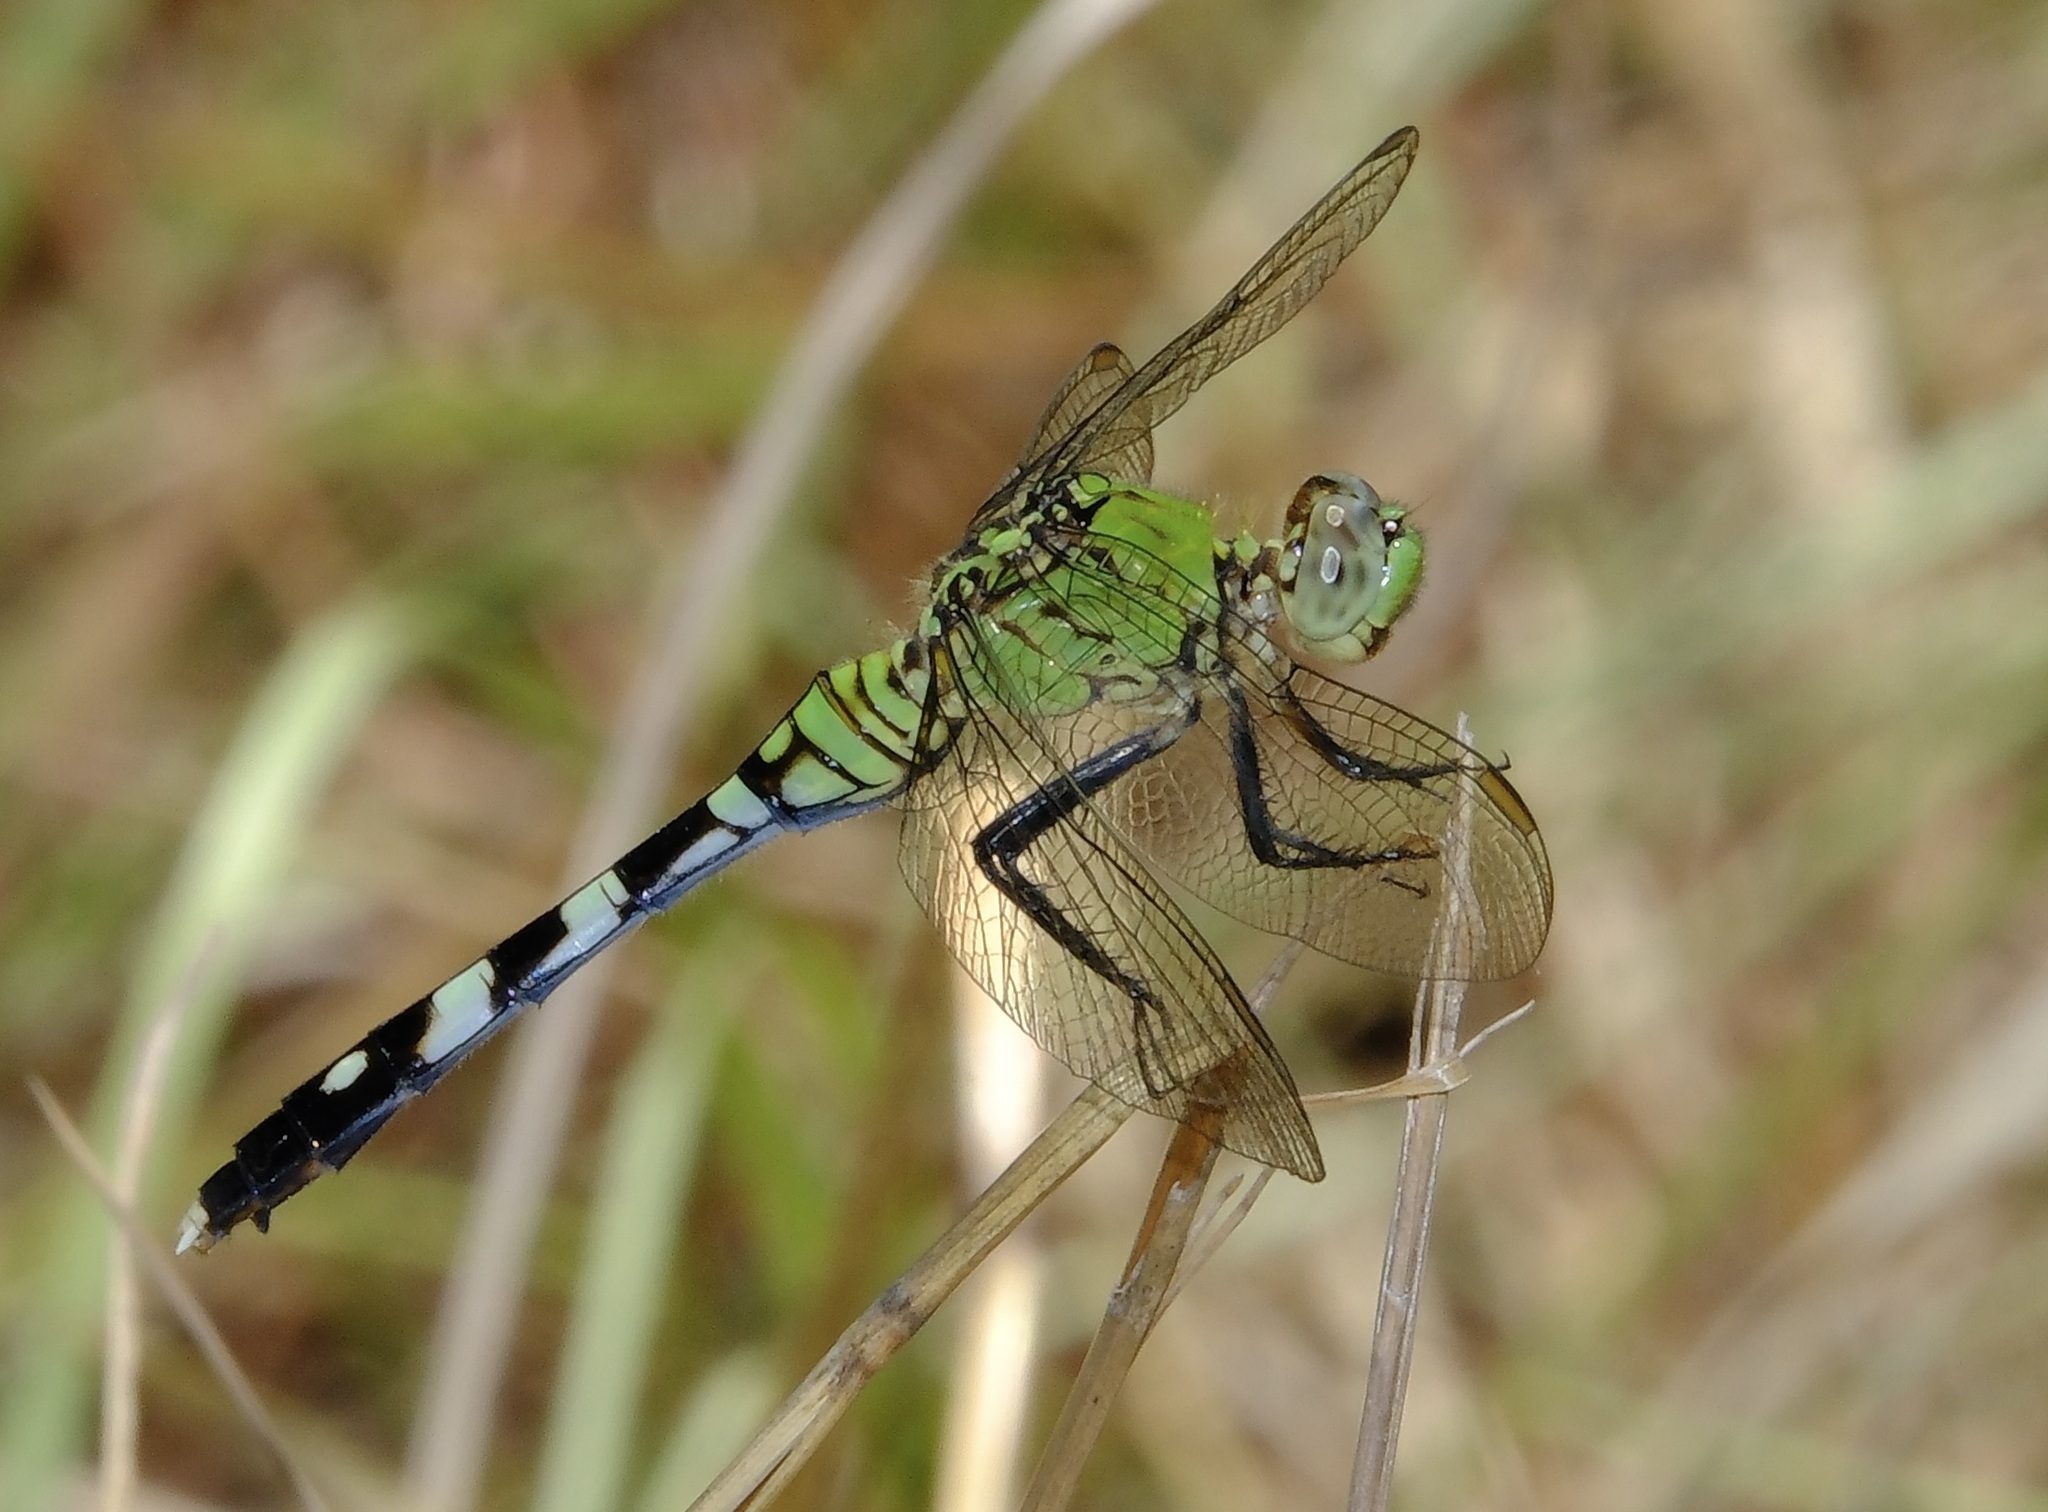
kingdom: Animalia
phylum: Arthropoda
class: Insecta
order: Odonata
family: Libellulidae
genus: Erythemis
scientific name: Erythemis simplicicollis
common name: Eastern pondhawk
